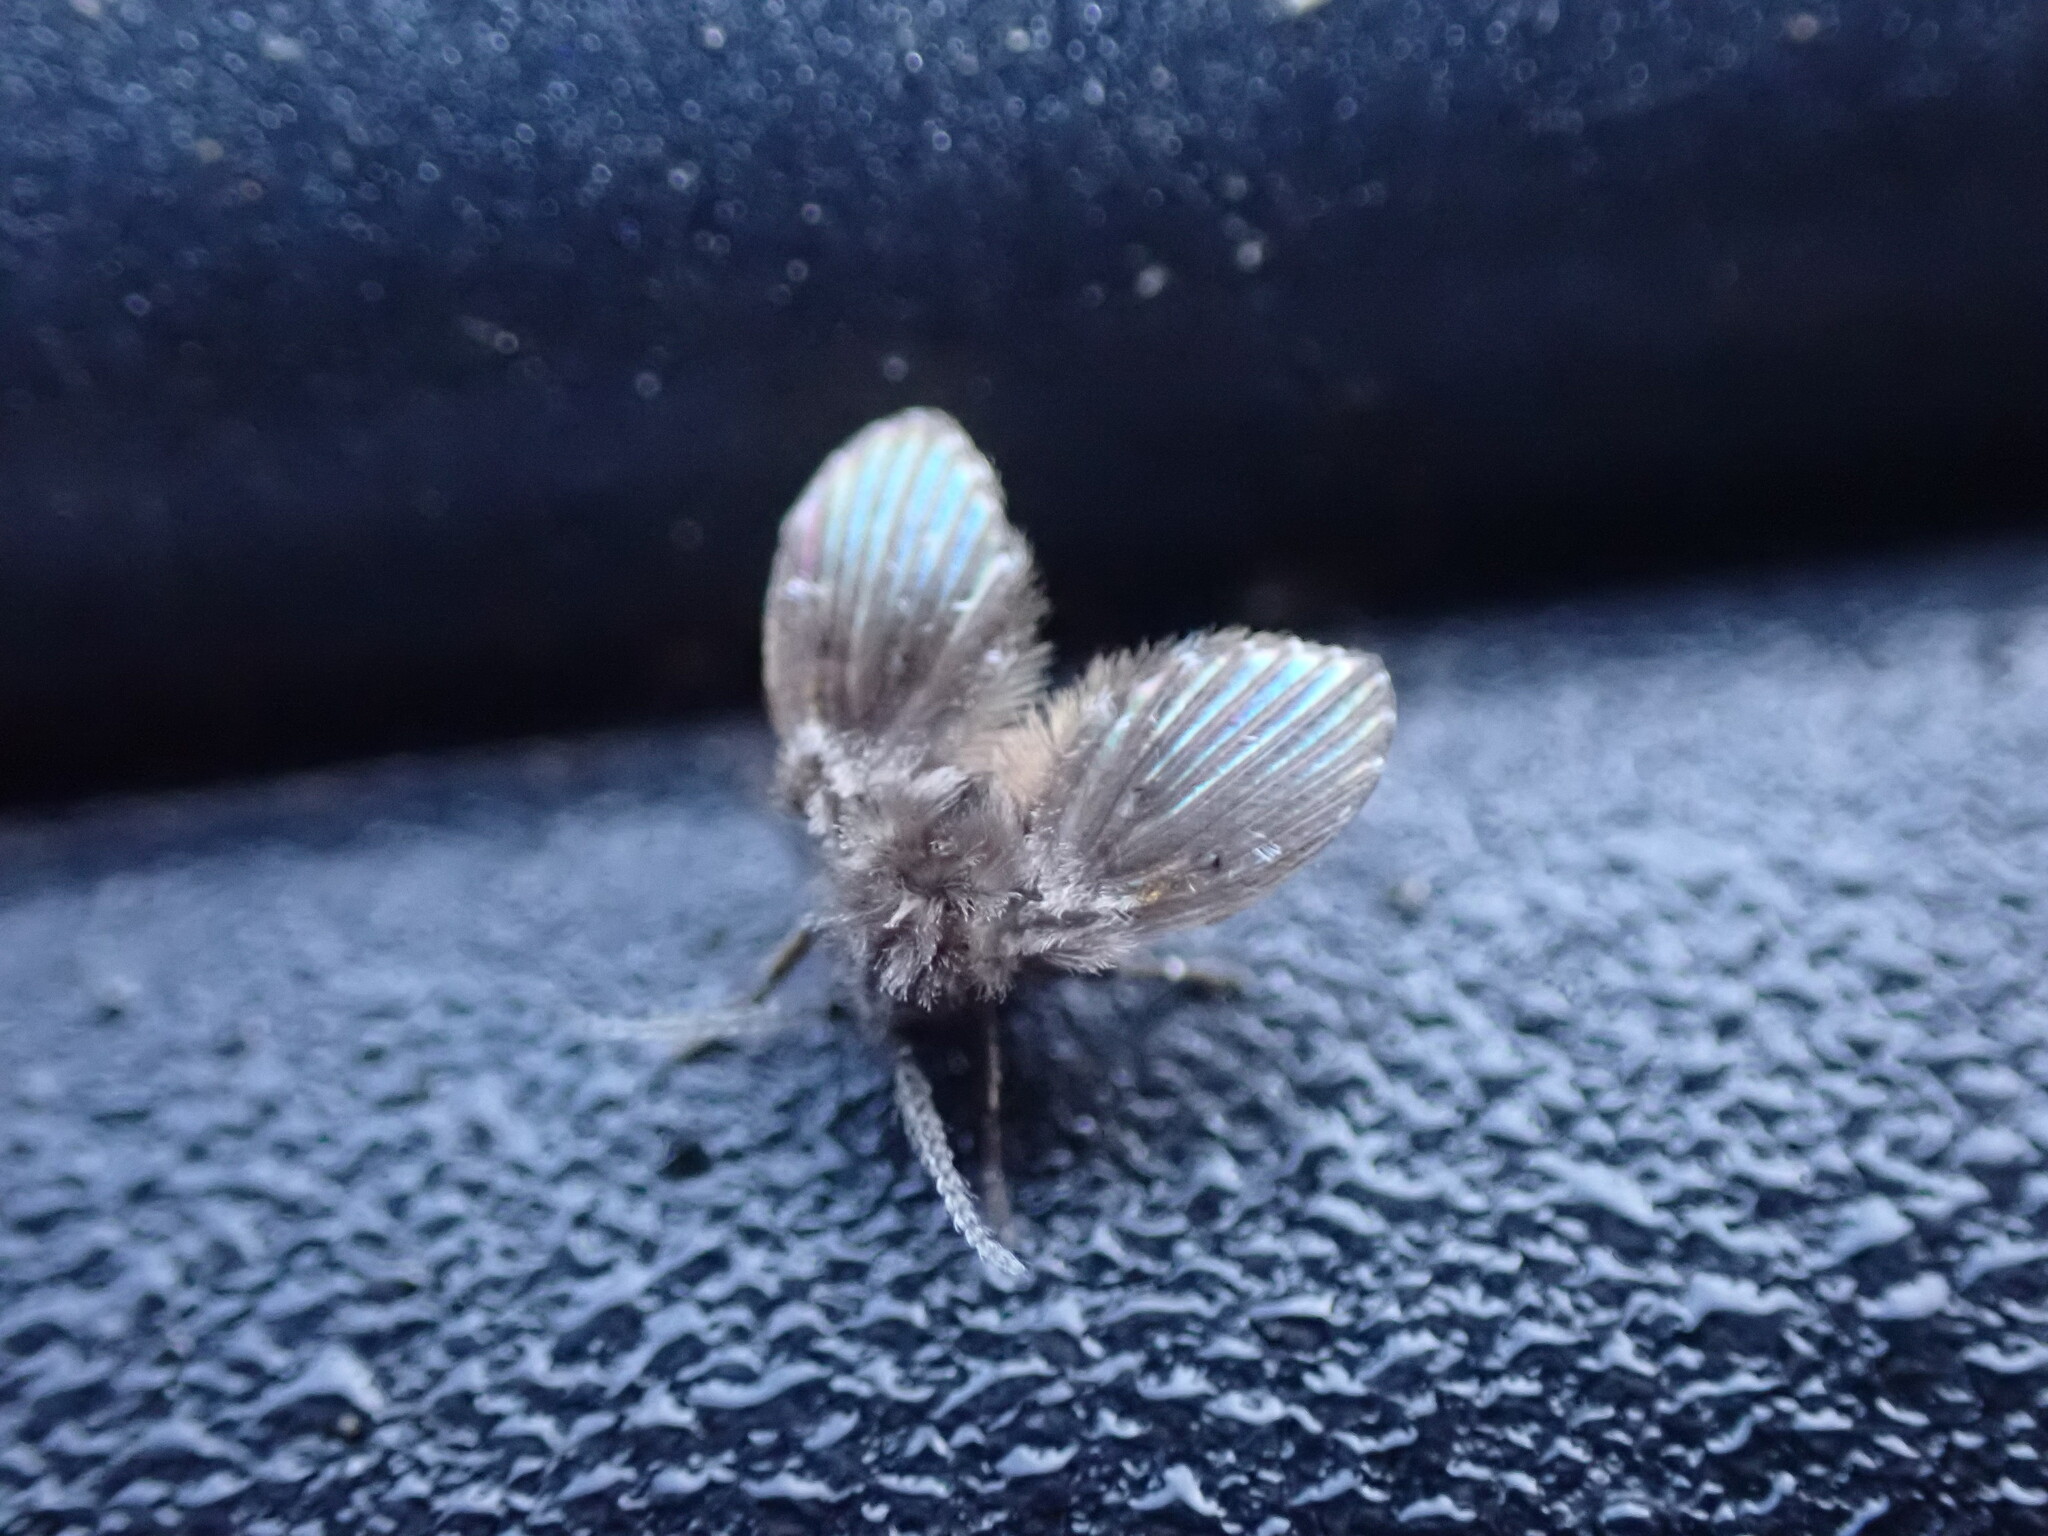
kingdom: Animalia
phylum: Arthropoda
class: Insecta
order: Diptera
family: Psychodidae
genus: Clogmia
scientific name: Clogmia albipunctatus
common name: White-spotted moth fly
